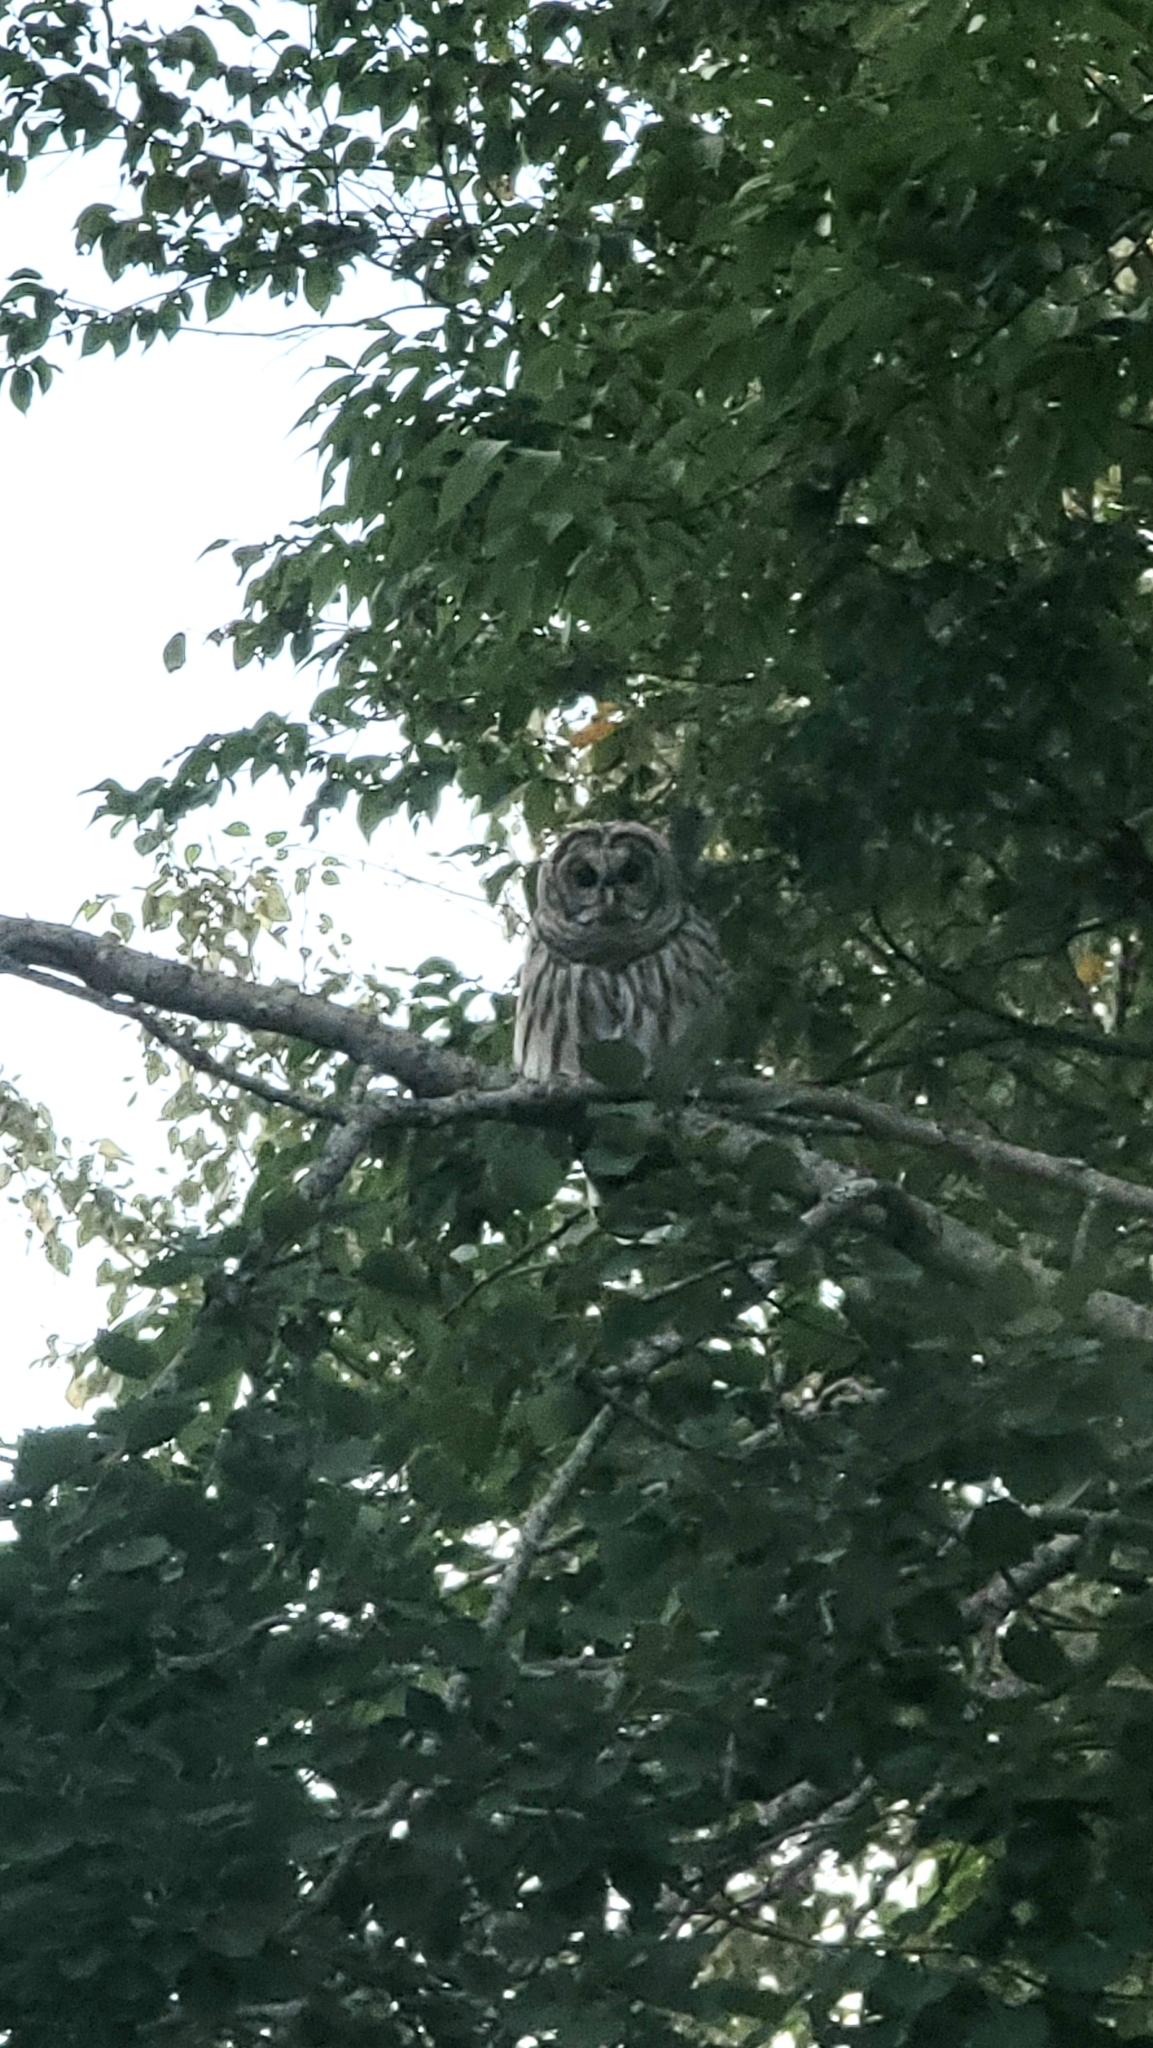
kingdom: Animalia
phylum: Chordata
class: Aves
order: Strigiformes
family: Strigidae
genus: Strix
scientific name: Strix varia
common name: Barred owl
